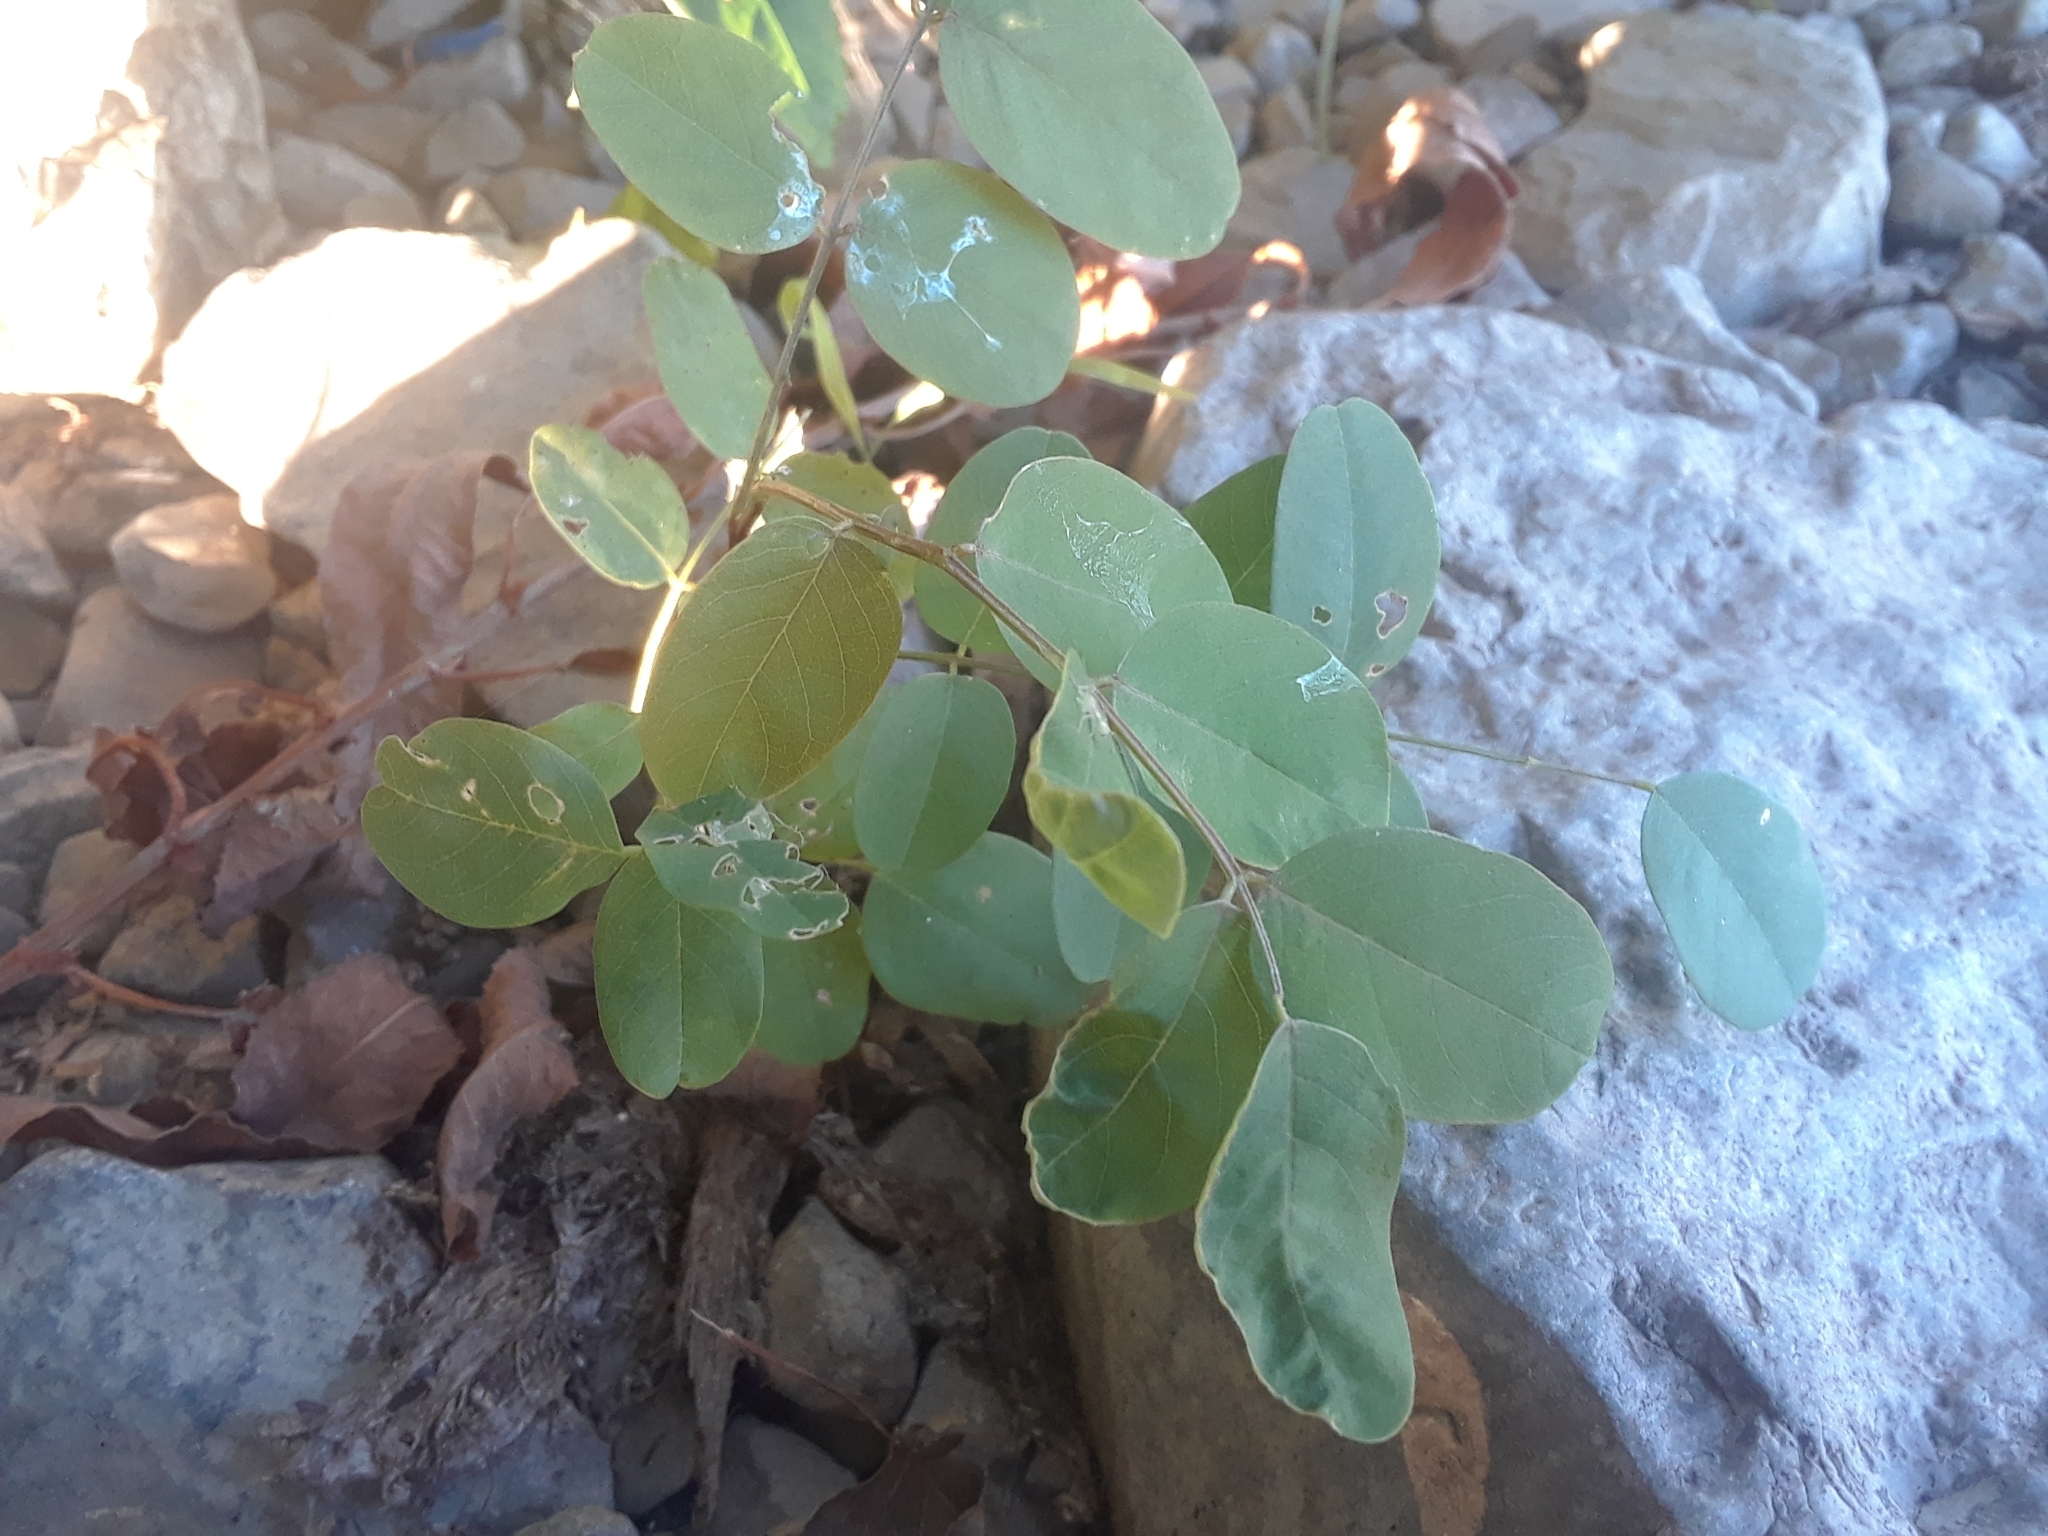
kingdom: Plantae
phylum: Tracheophyta
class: Magnoliopsida
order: Fabales
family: Fabaceae
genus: Robinia
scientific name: Robinia pseudoacacia
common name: Black locust
